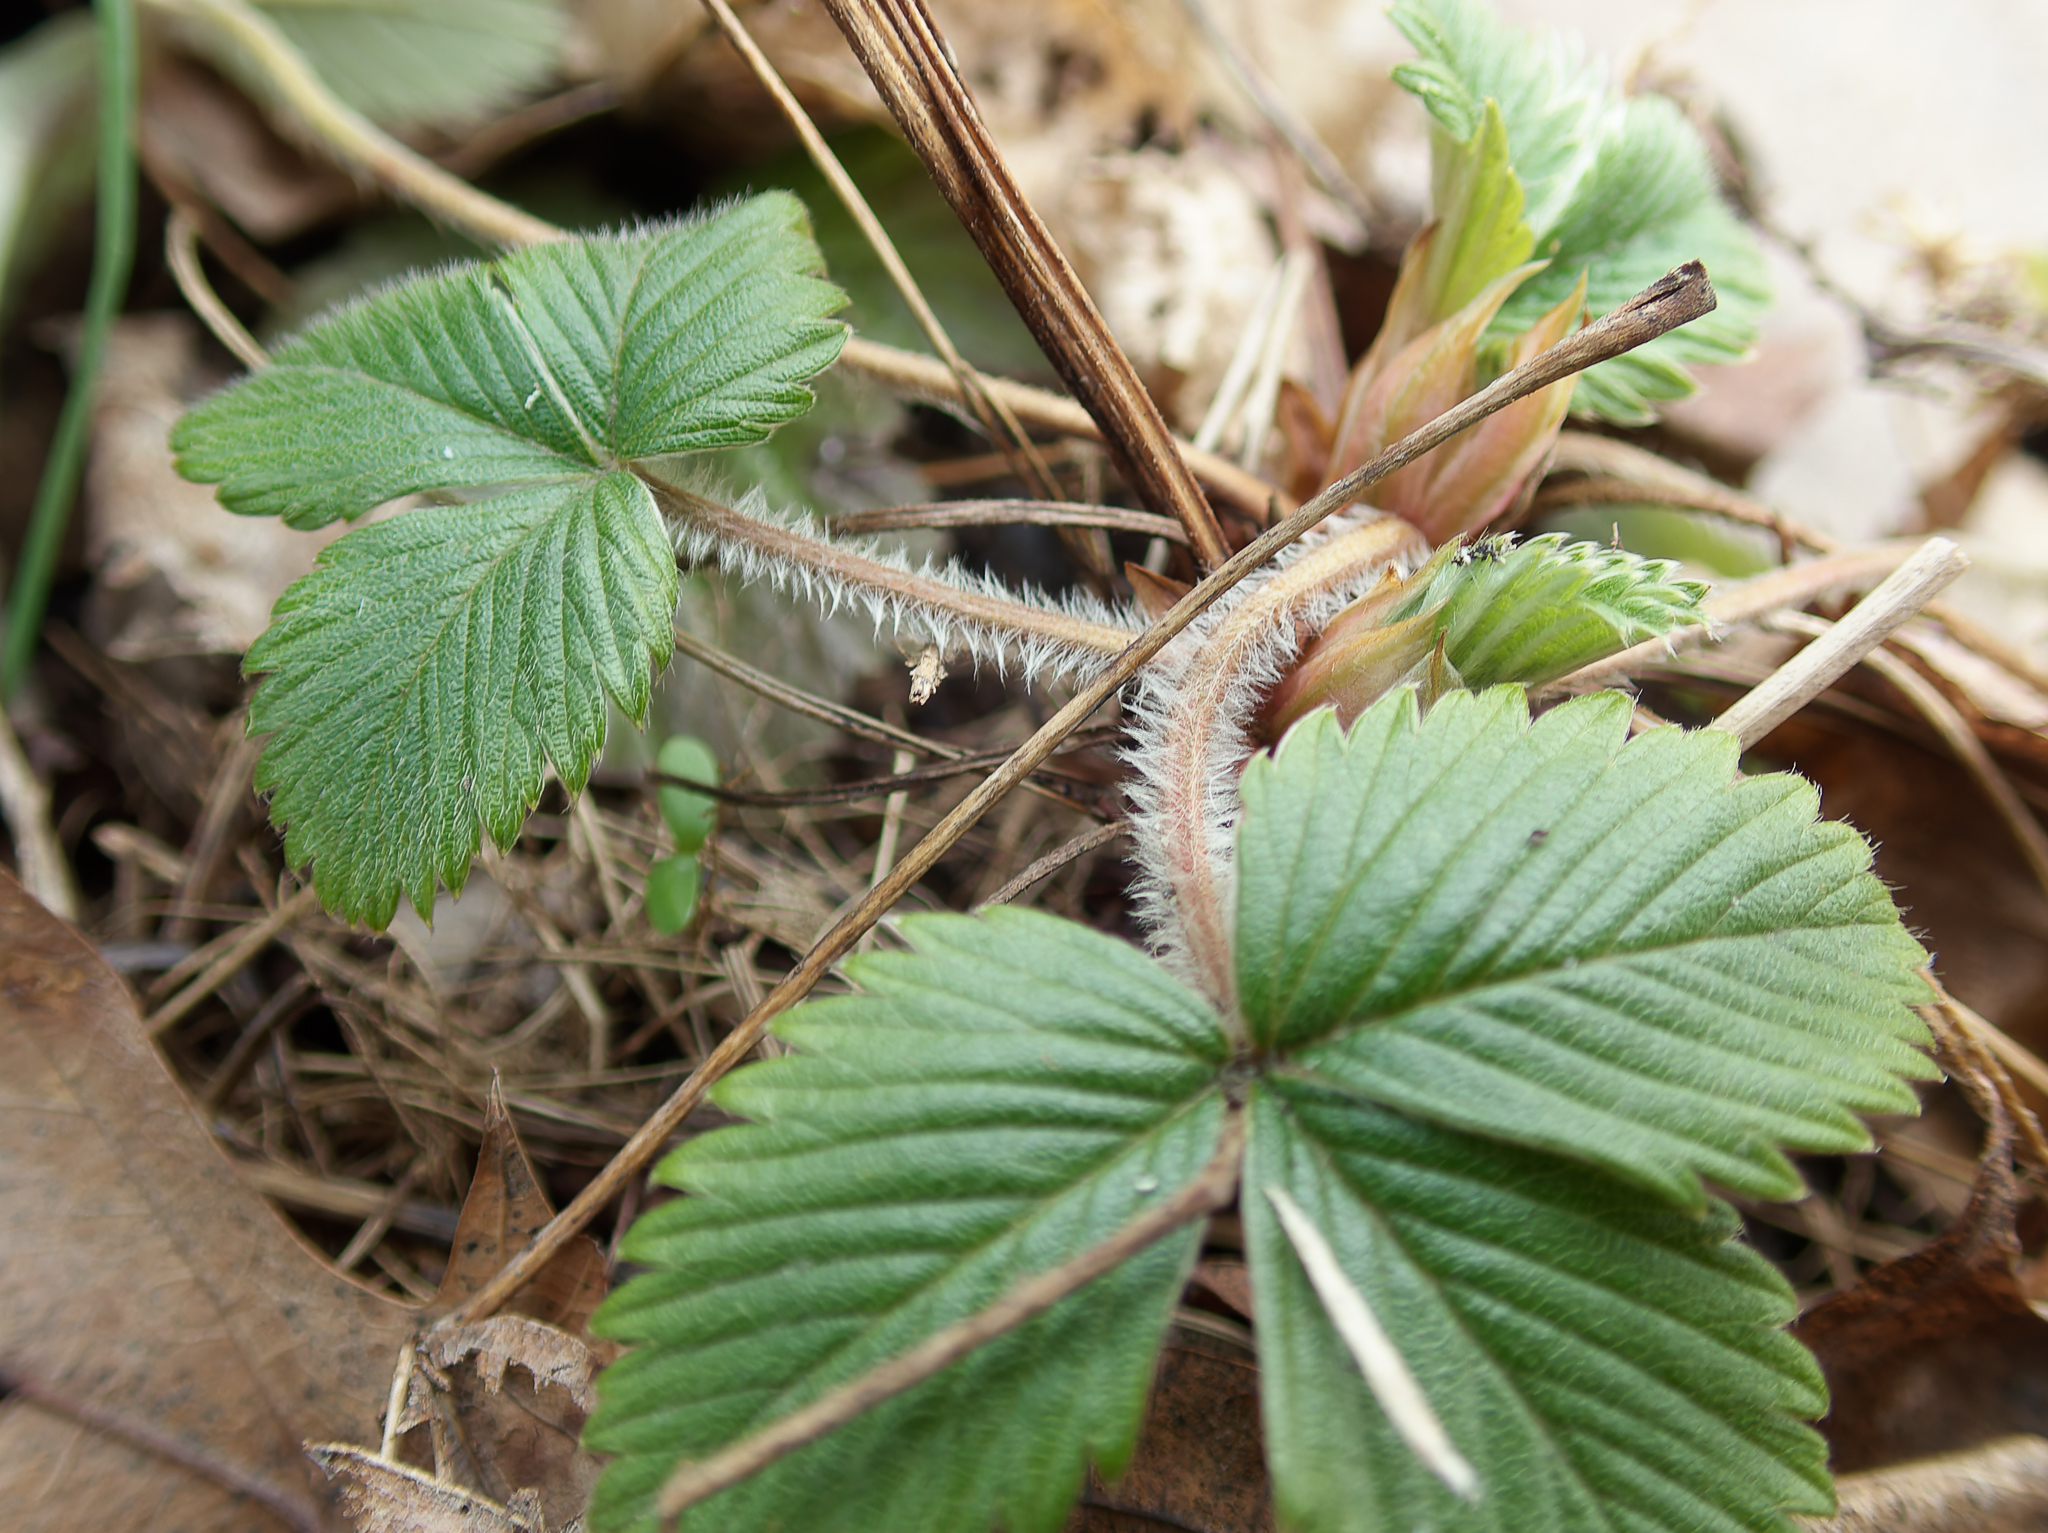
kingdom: Plantae
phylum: Tracheophyta
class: Magnoliopsida
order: Rosales
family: Rosaceae
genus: Fragaria
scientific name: Fragaria vesca
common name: Wild strawberry
